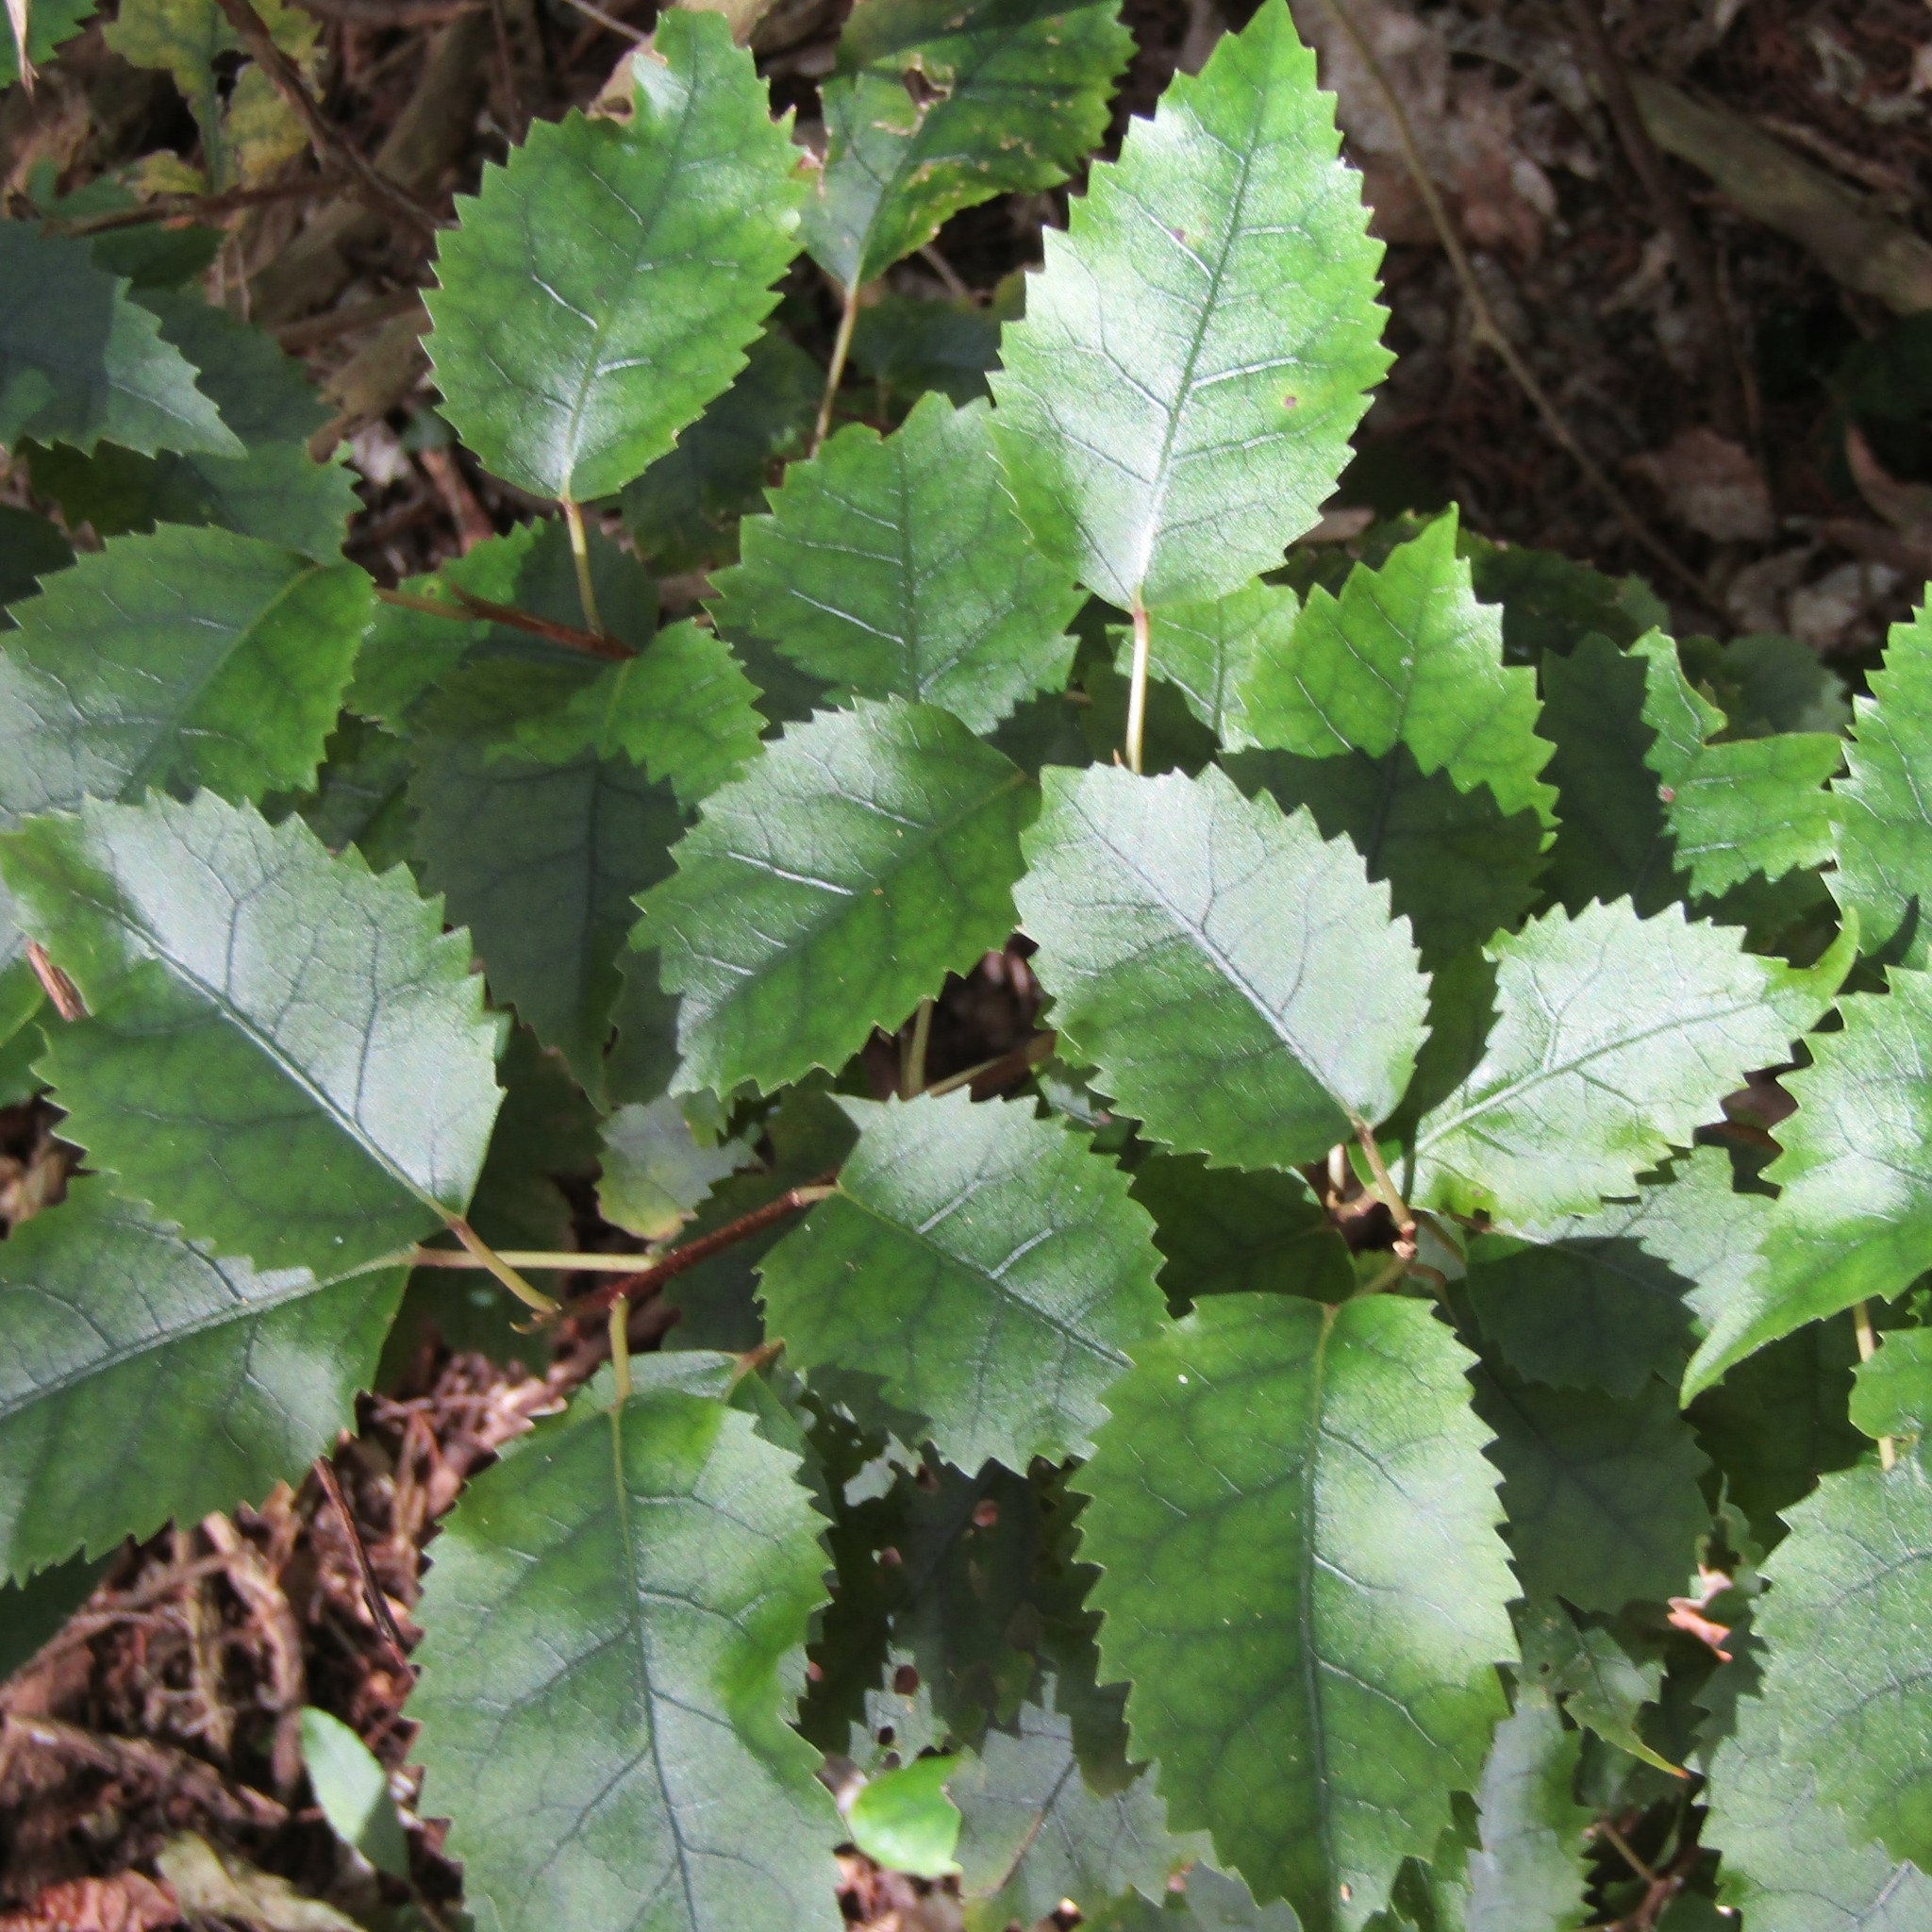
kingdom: Plantae
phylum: Tracheophyta
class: Magnoliopsida
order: Malvales
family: Malvaceae
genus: Hoheria
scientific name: Hoheria populnea
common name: Lacebark
